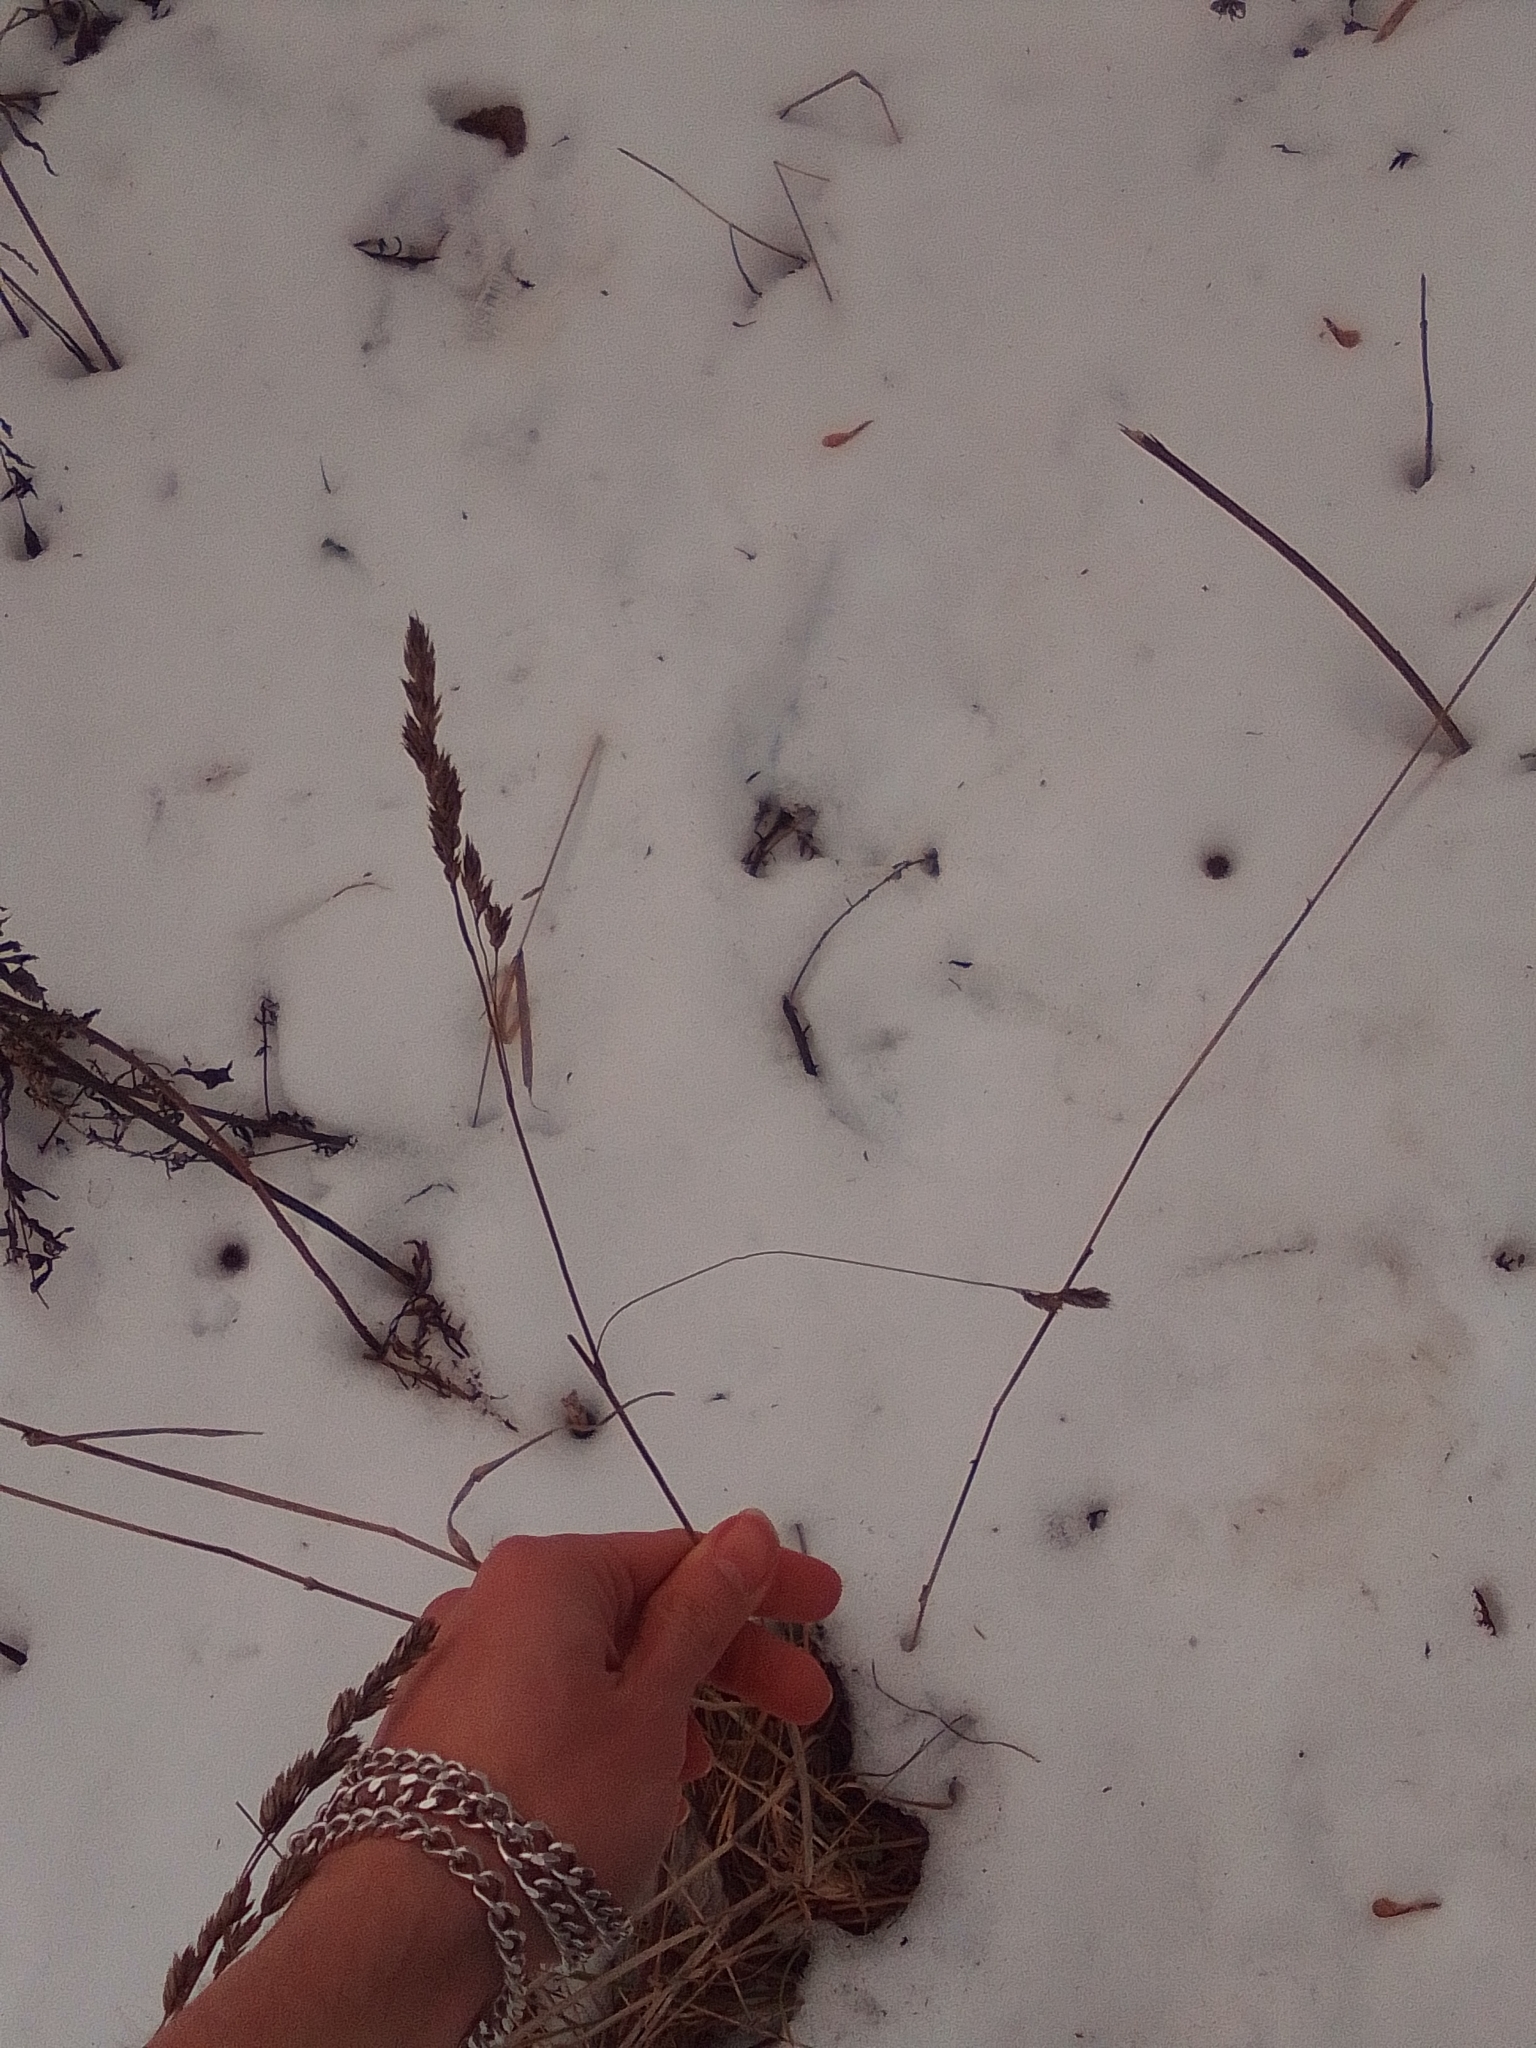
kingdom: Plantae
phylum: Tracheophyta
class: Liliopsida
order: Poales
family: Poaceae
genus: Dactylis
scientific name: Dactylis glomerata
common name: Orchardgrass
